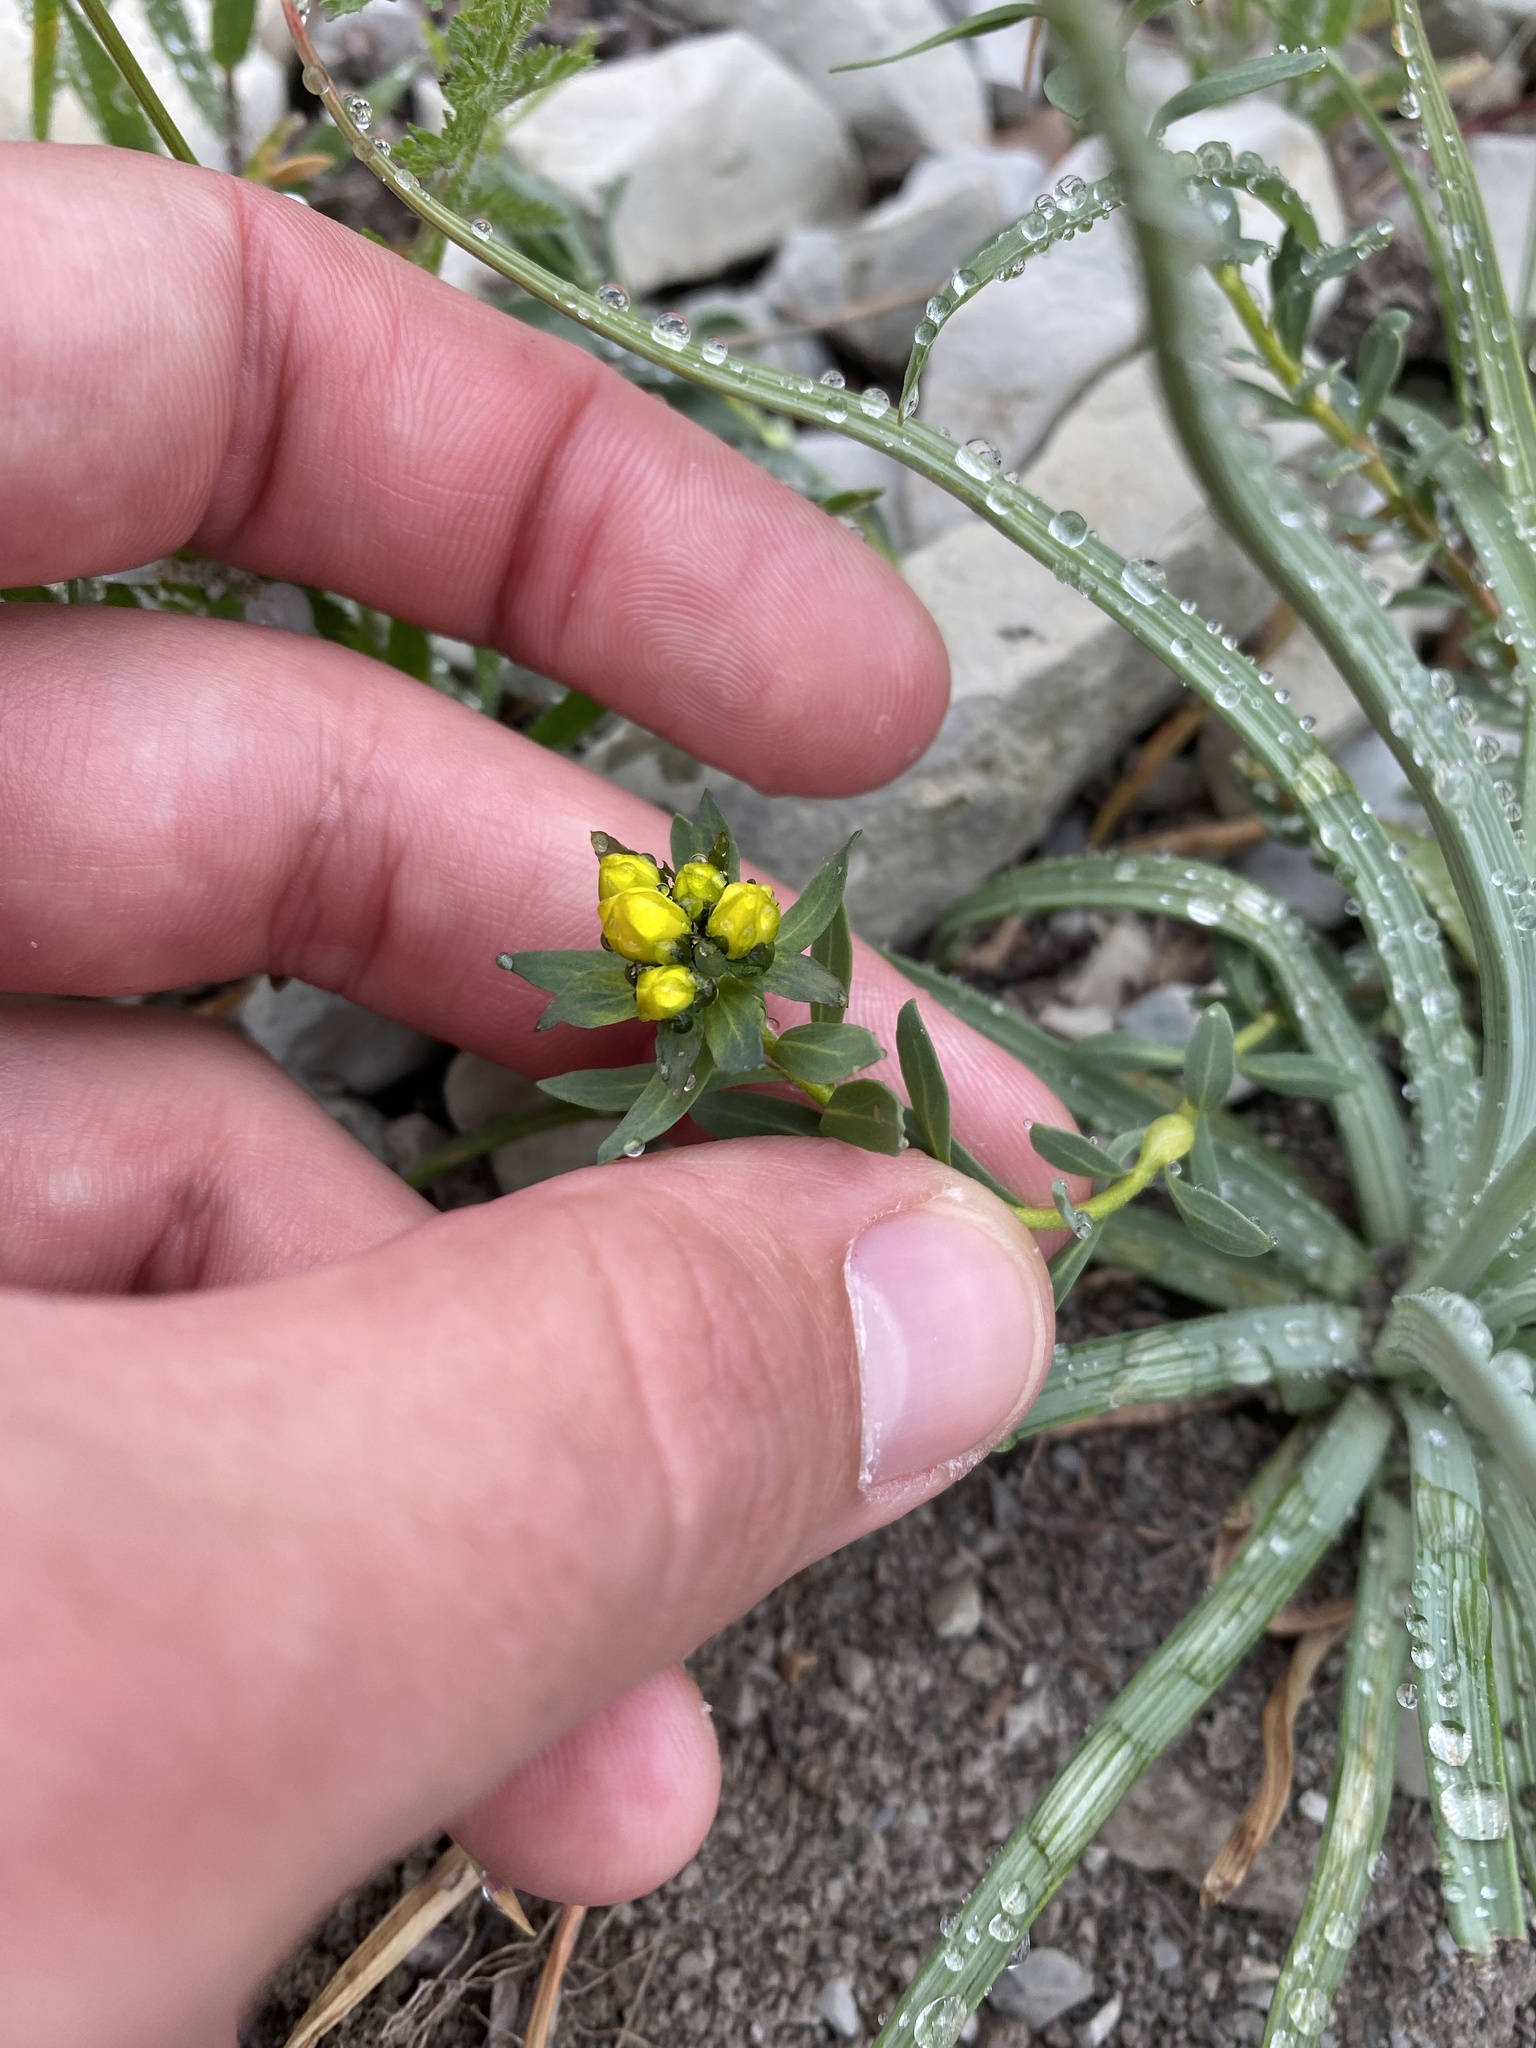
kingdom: Plantae
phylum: Tracheophyta
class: Magnoliopsida
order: Sapindales
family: Rutaceae
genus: Haplophyllum
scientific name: Haplophyllum suaveolens
